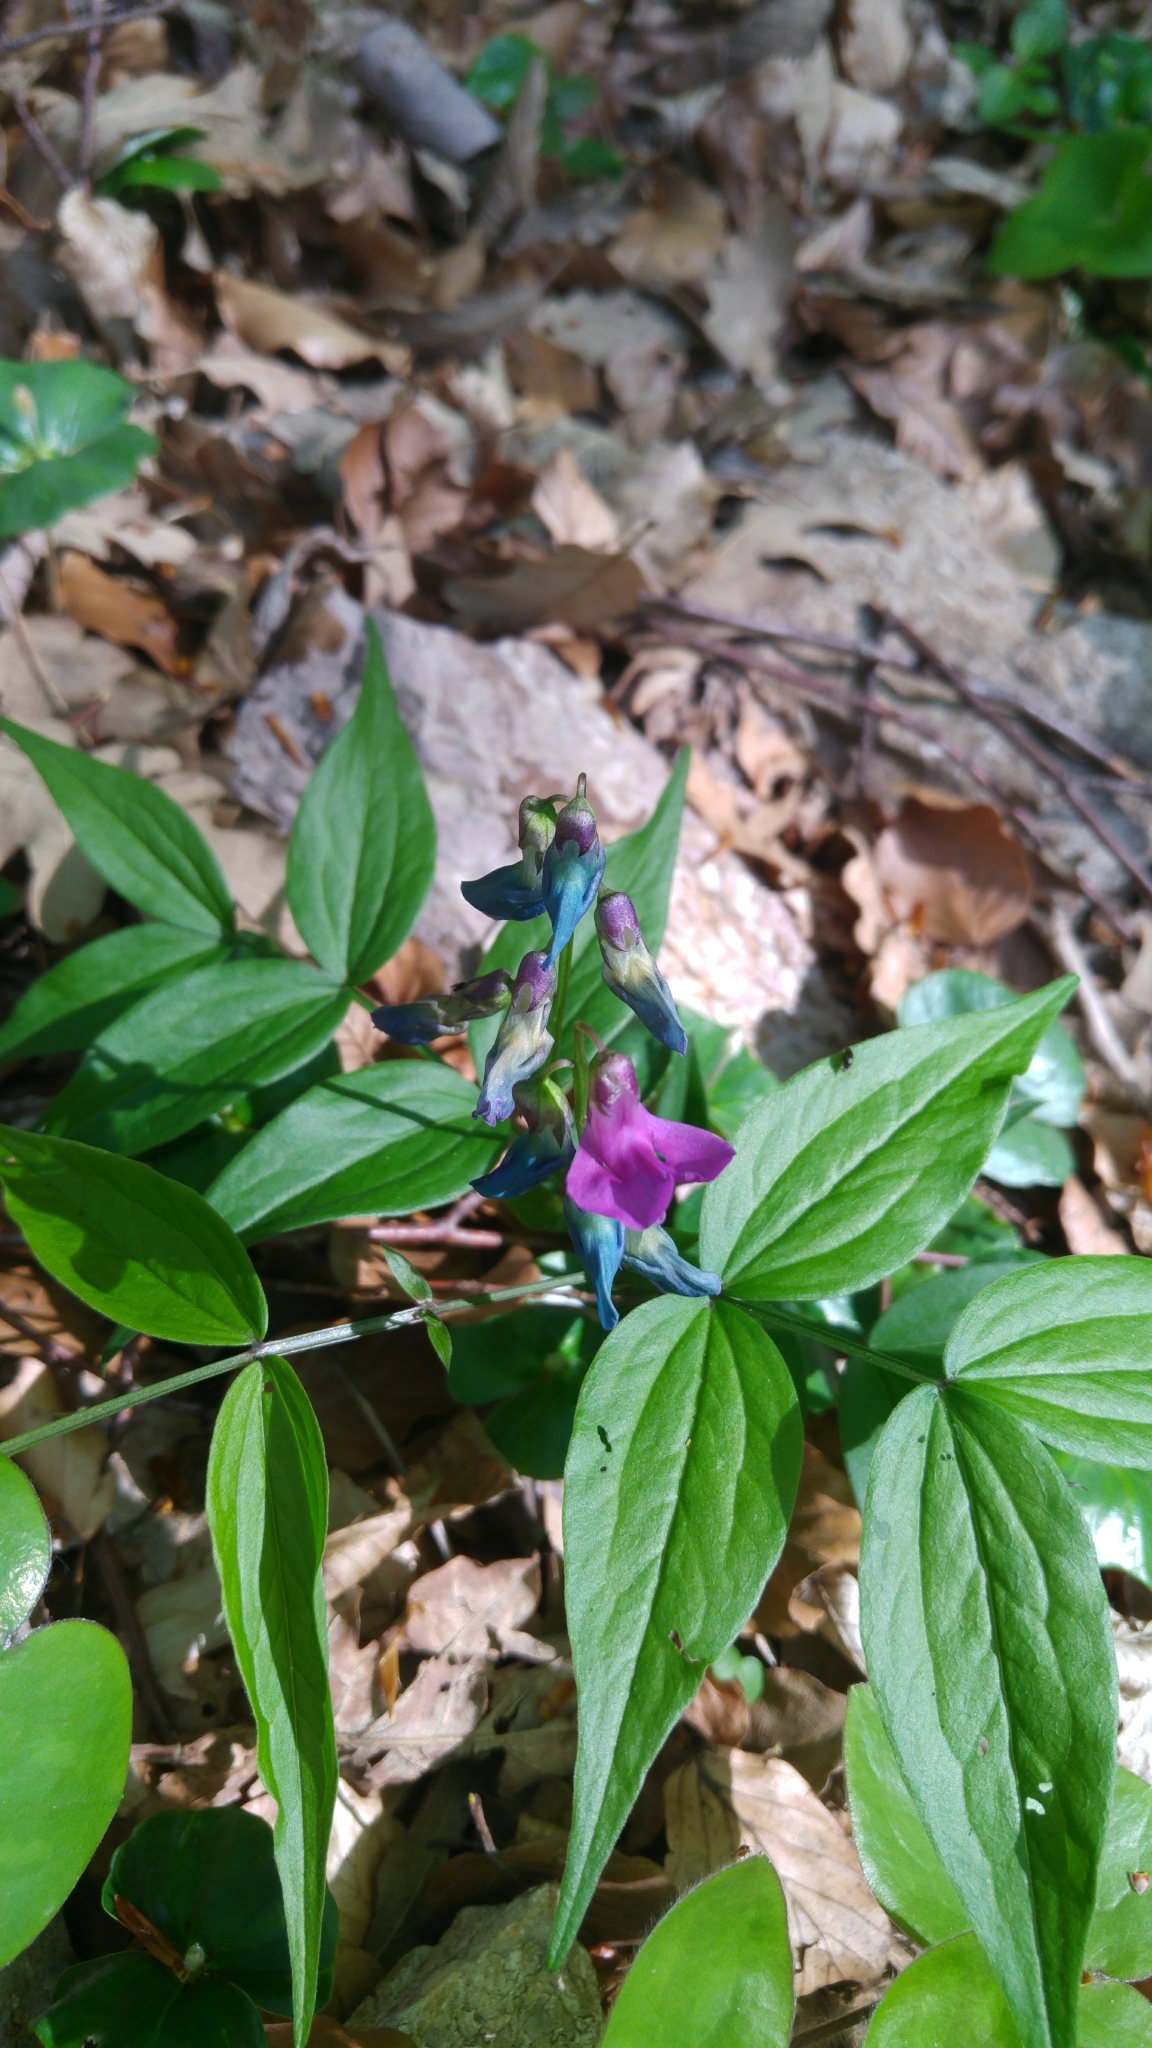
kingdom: Plantae
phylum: Tracheophyta
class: Magnoliopsida
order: Fabales
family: Fabaceae
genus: Lathyrus
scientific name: Lathyrus vernus
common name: Spring pea
